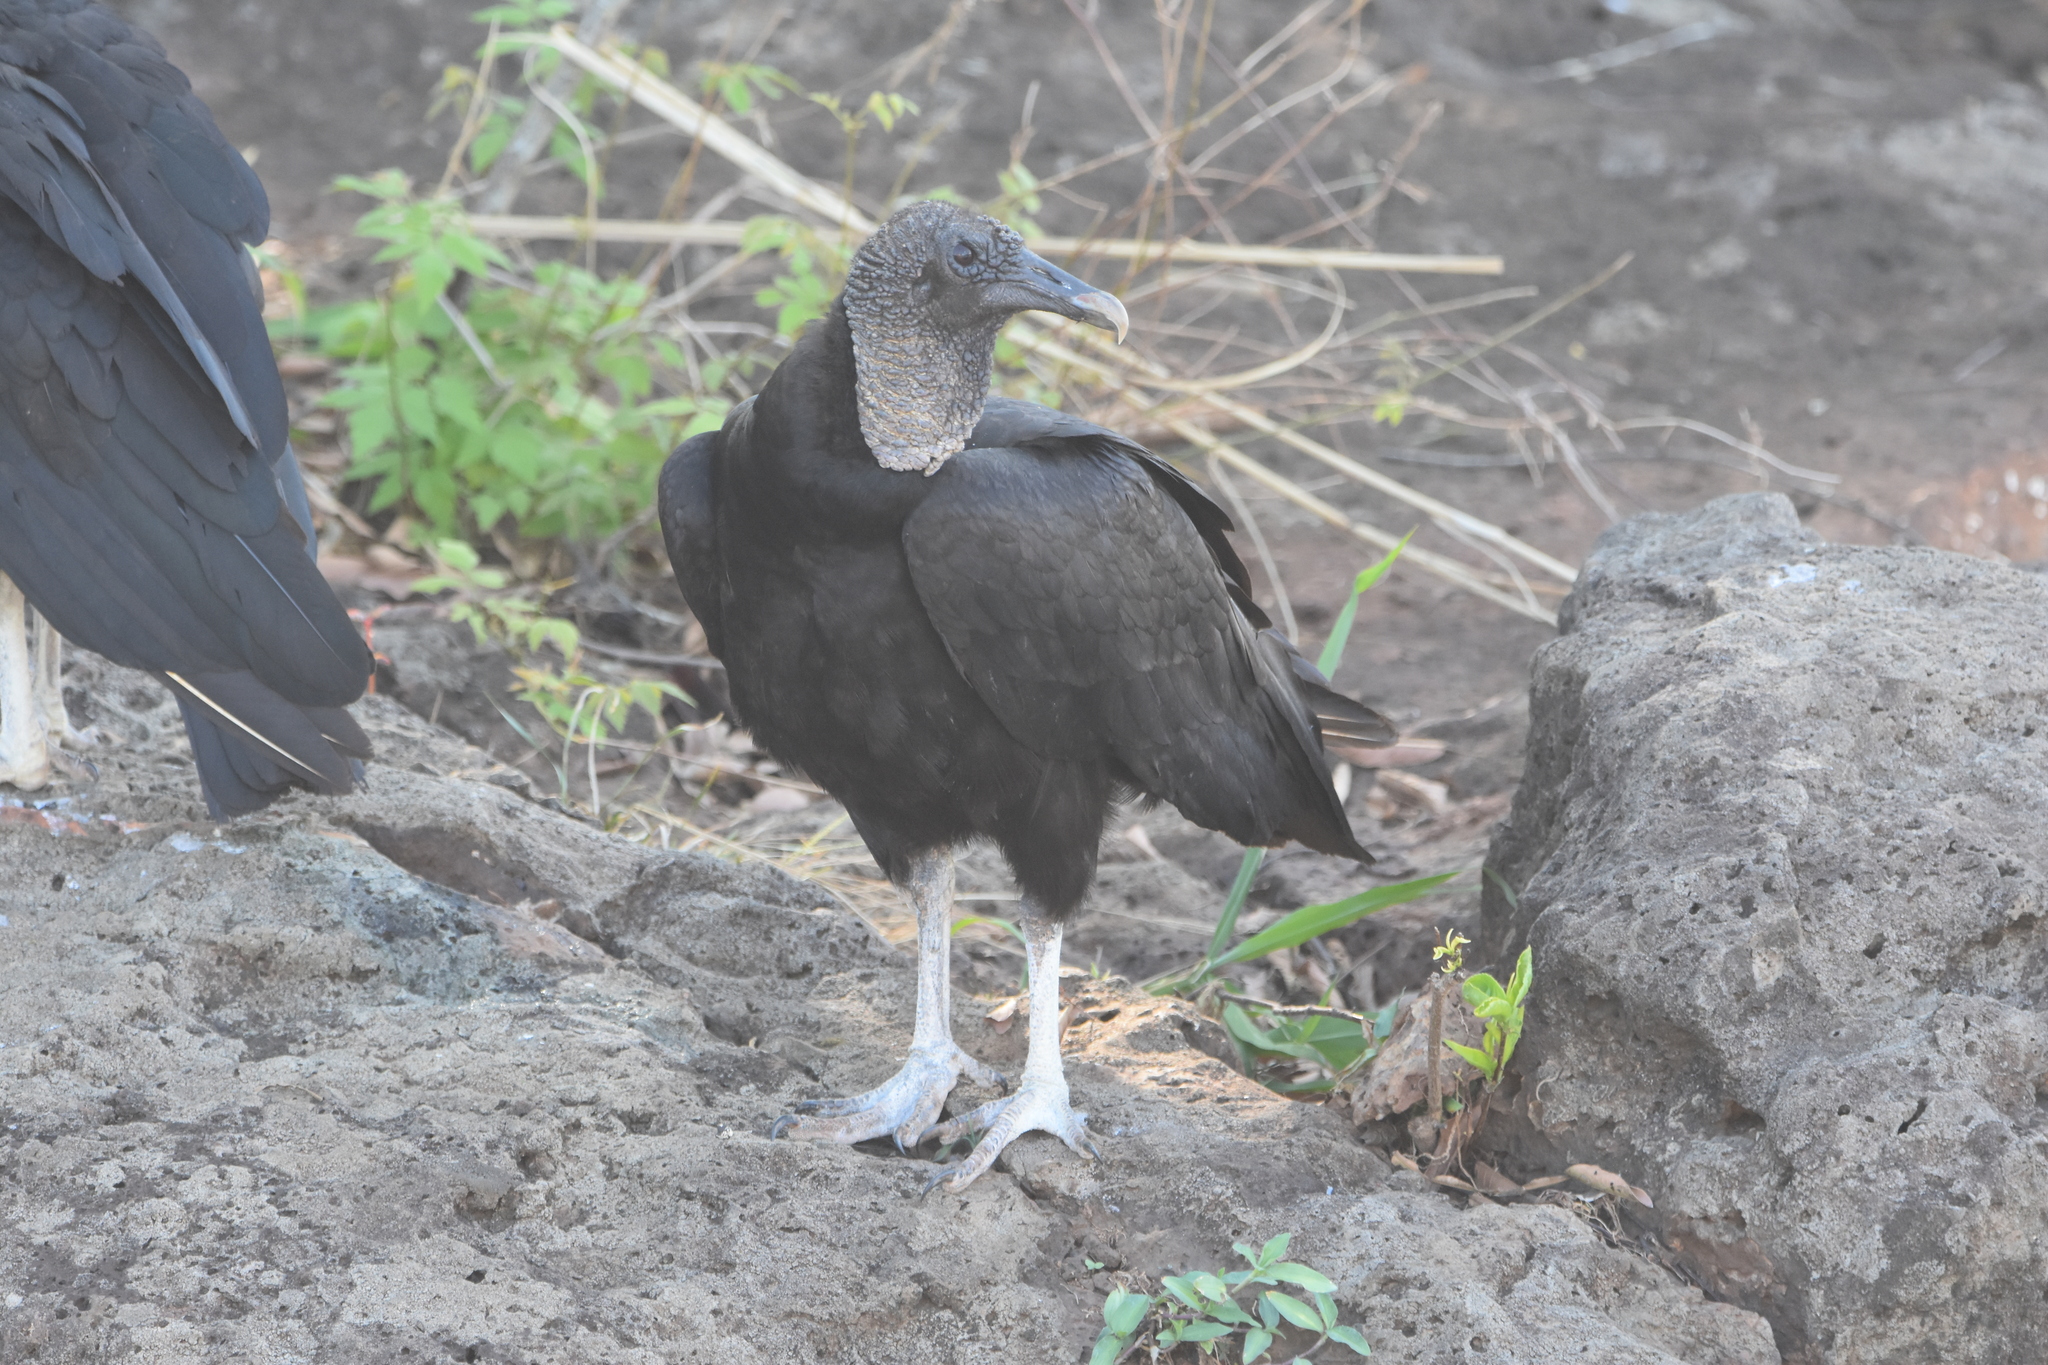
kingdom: Animalia
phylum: Chordata
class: Aves
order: Accipitriformes
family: Cathartidae
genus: Coragyps
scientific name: Coragyps atratus
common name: Black vulture
